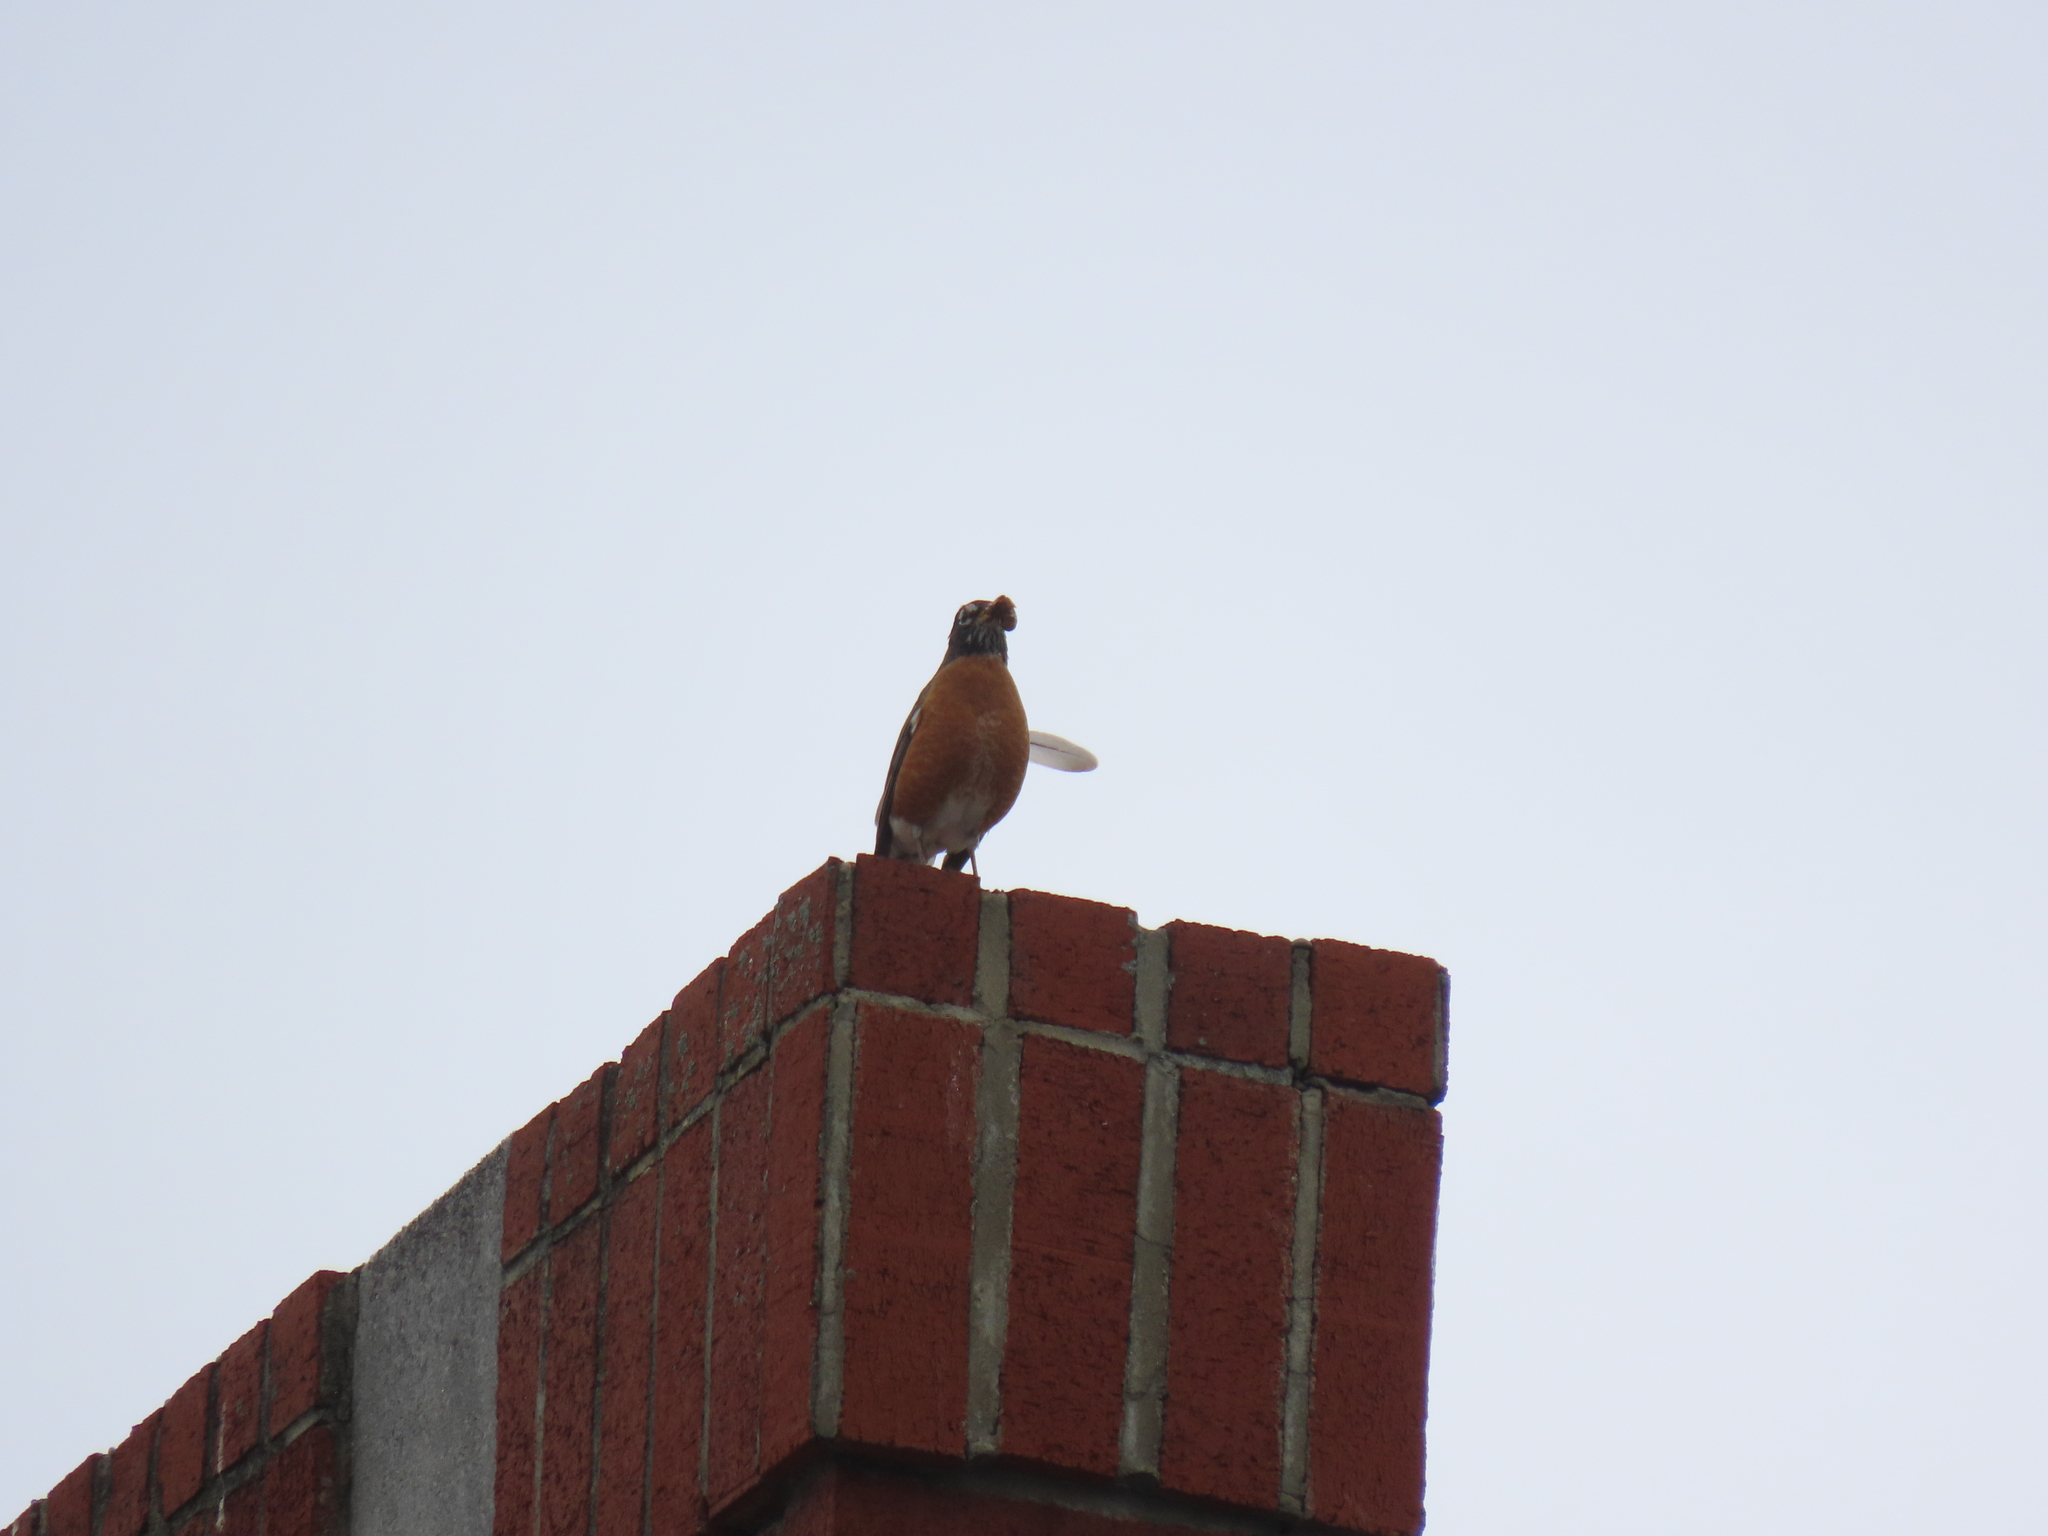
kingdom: Animalia
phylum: Chordata
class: Aves
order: Passeriformes
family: Turdidae
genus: Turdus
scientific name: Turdus migratorius
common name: American robin
